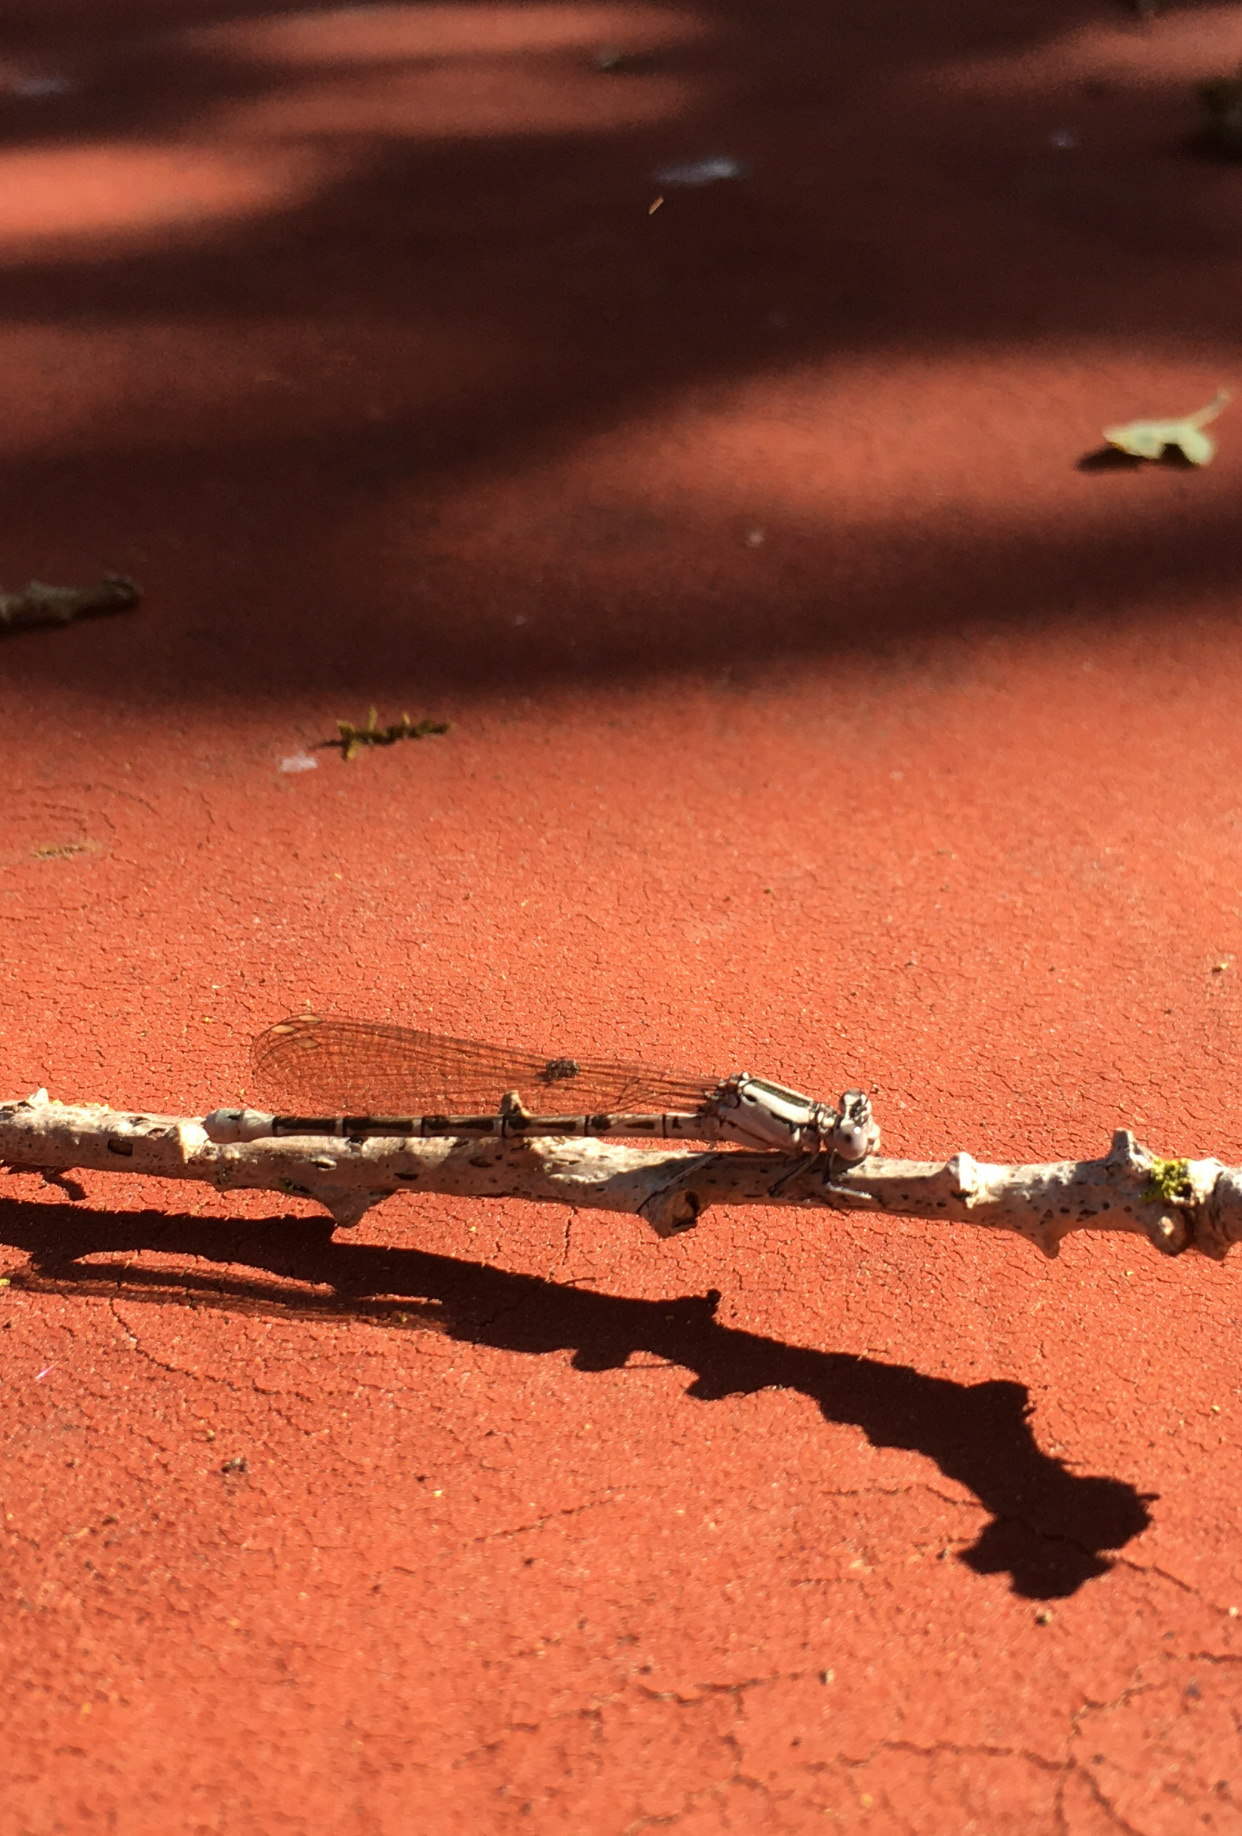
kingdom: Animalia
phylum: Arthropoda
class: Insecta
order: Odonata
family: Coenagrionidae
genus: Argia
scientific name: Argia vivida
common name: Vivid dancer
